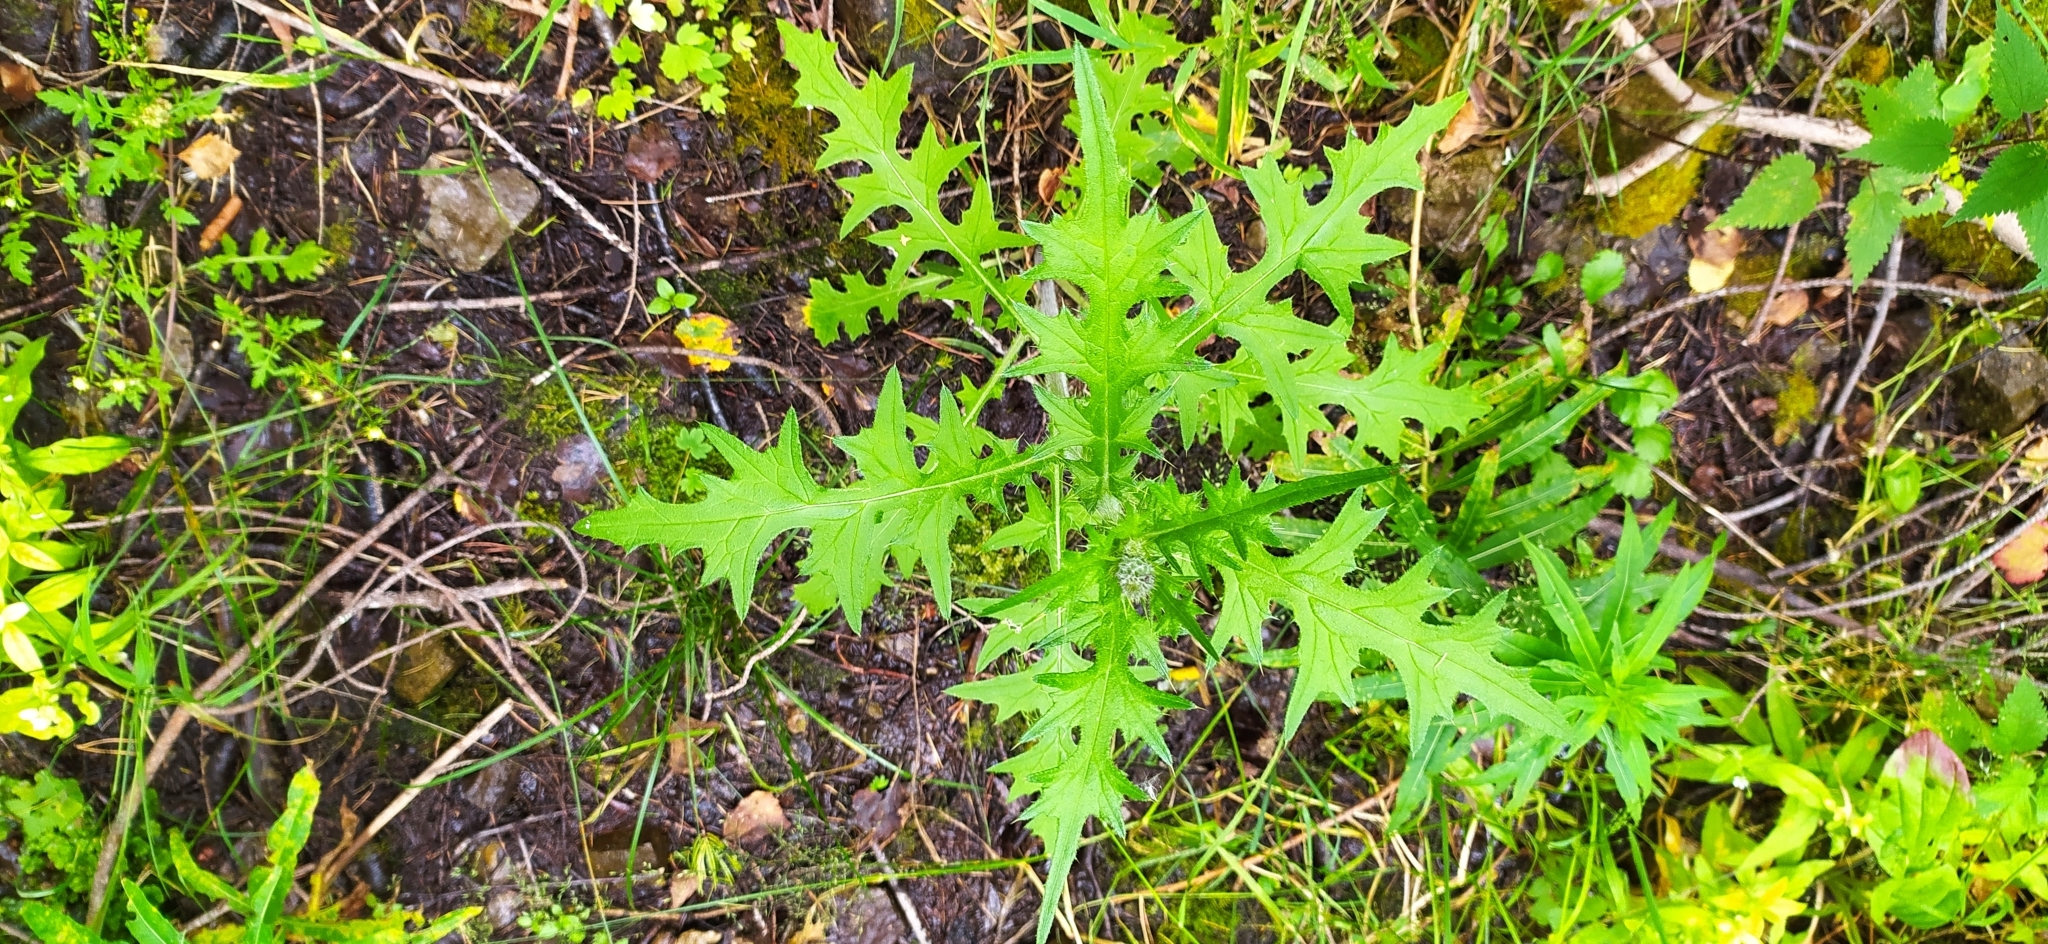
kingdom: Plantae
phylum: Tracheophyta
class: Magnoliopsida
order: Asterales
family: Asteraceae
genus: Cirsium
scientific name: Cirsium vulgare
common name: Bull thistle
